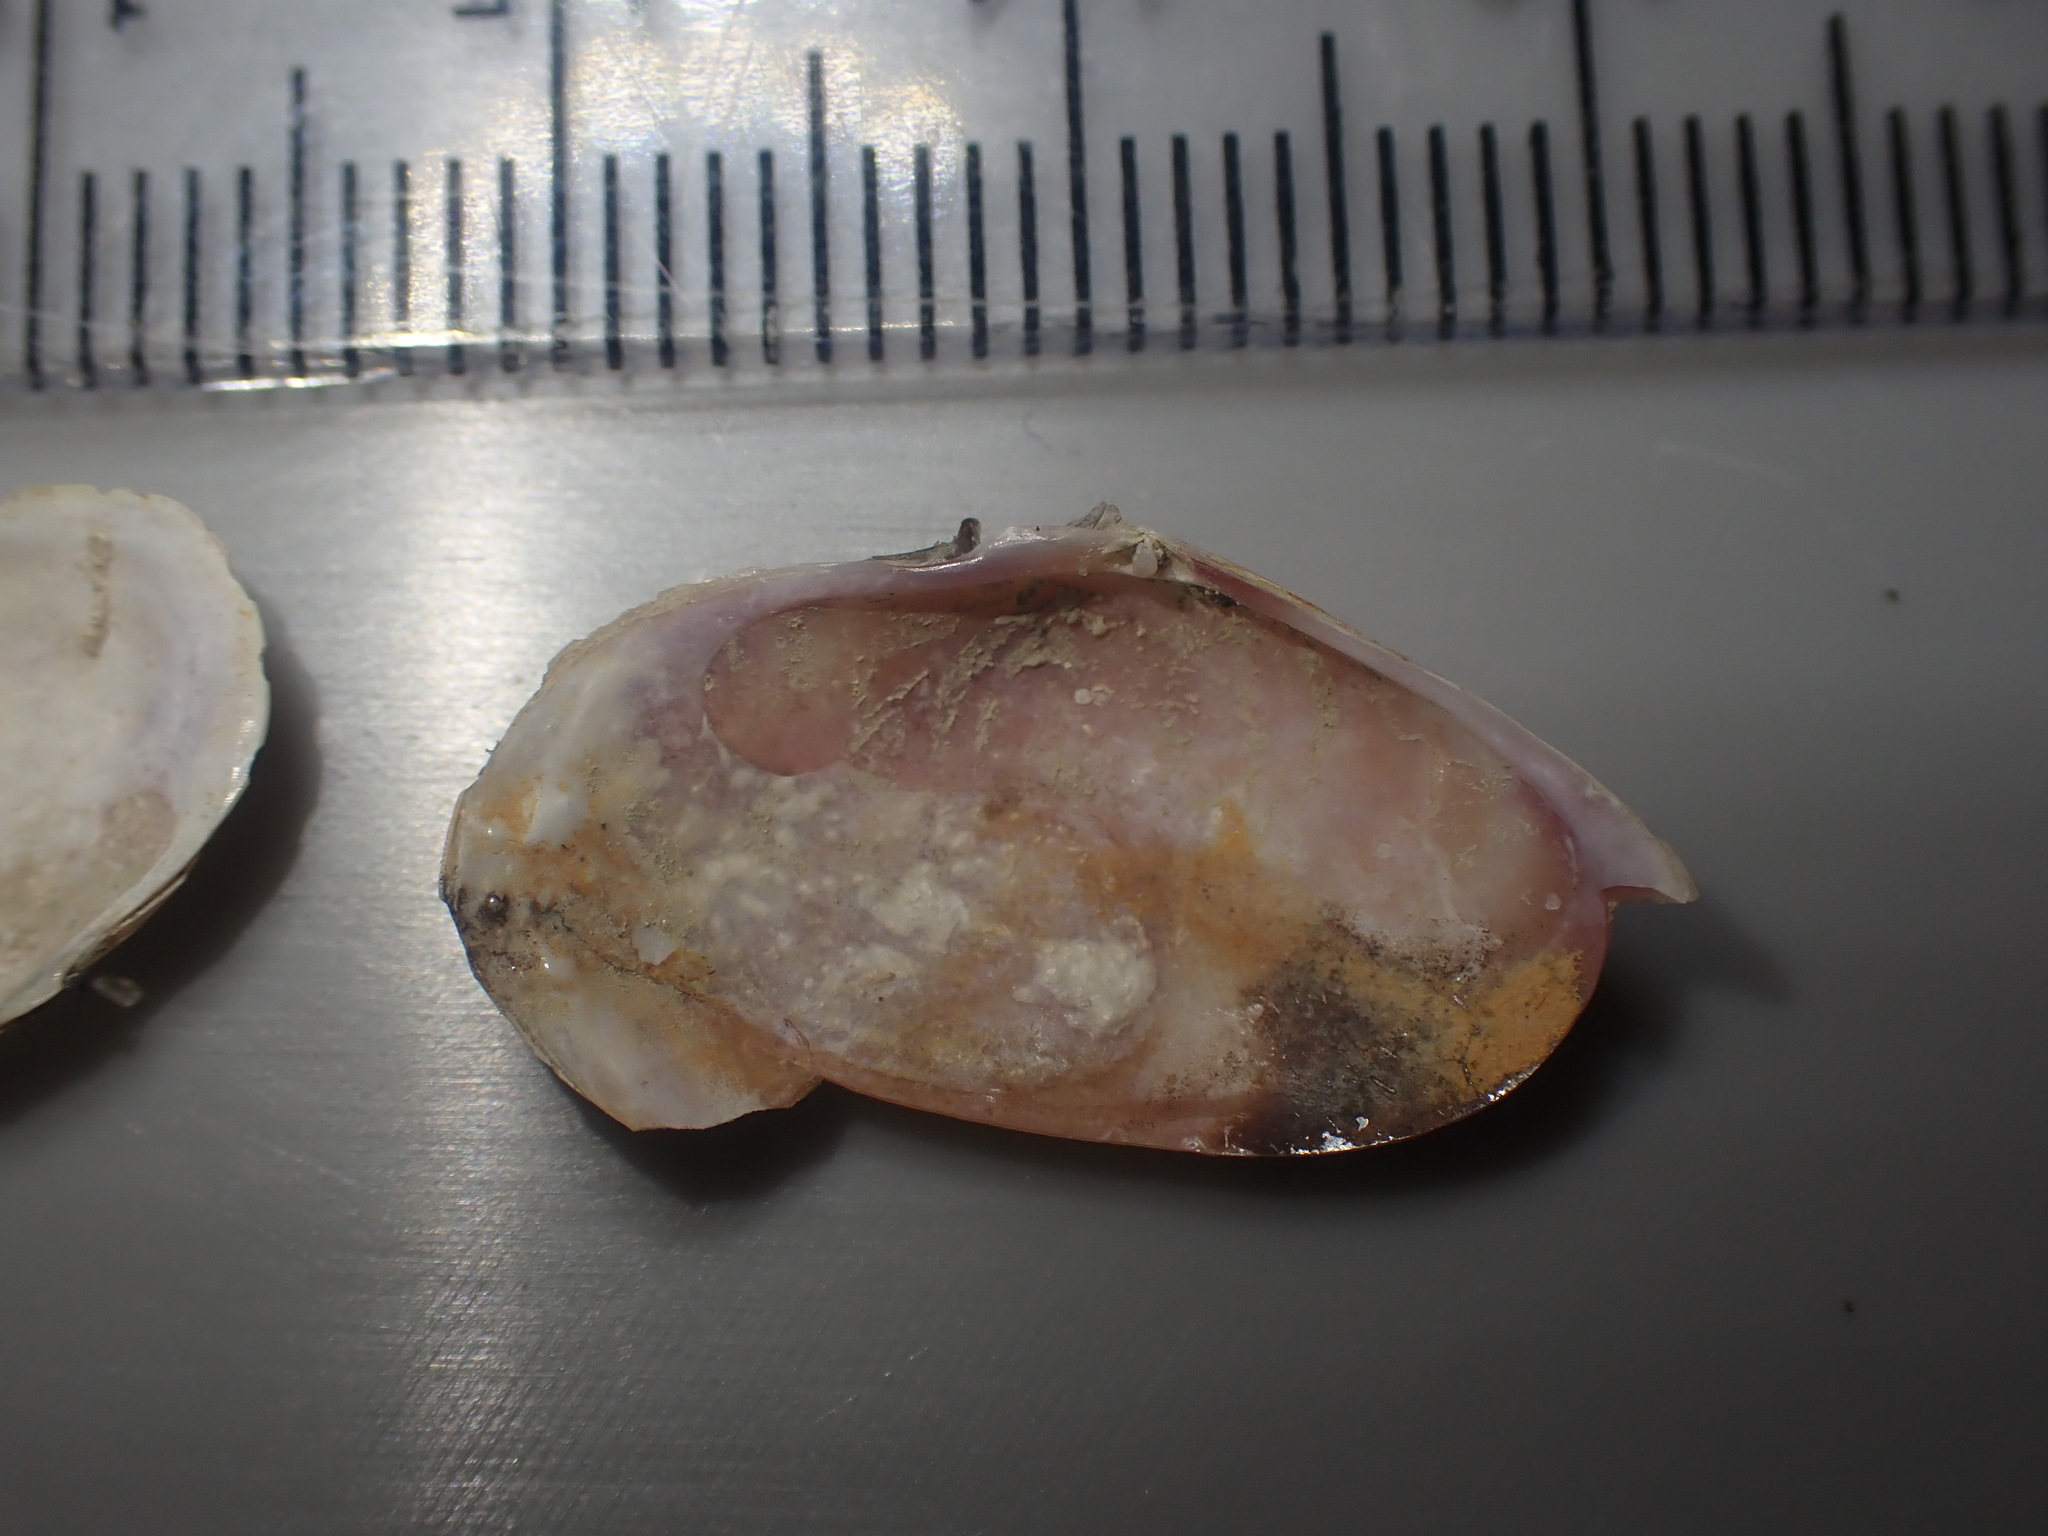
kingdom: Animalia
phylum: Mollusca
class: Bivalvia
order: Cardiida
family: Psammobiidae
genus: Gari
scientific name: Gari stangeri
